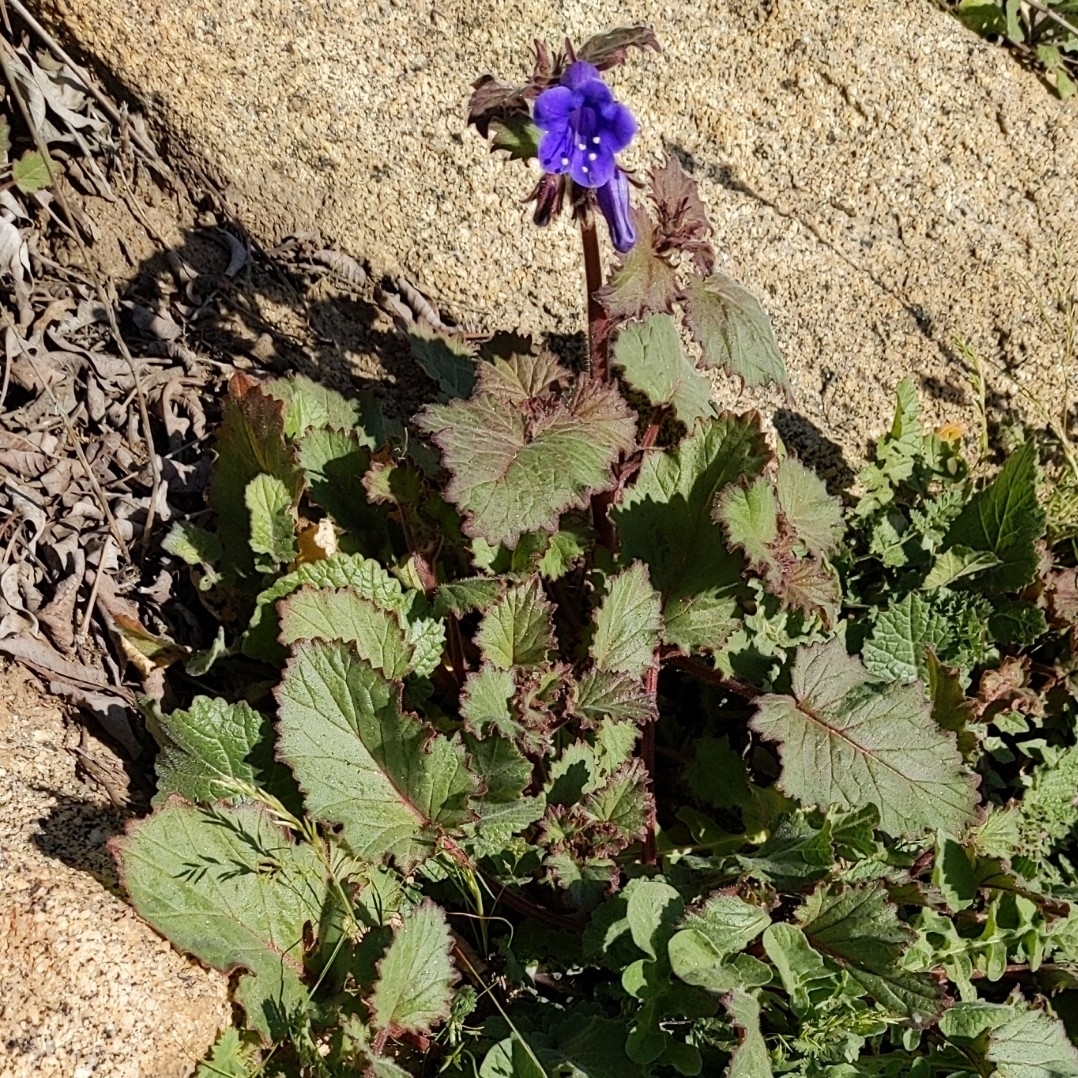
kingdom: Plantae
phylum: Tracheophyta
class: Magnoliopsida
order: Boraginales
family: Hydrophyllaceae
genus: Phacelia
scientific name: Phacelia minor
